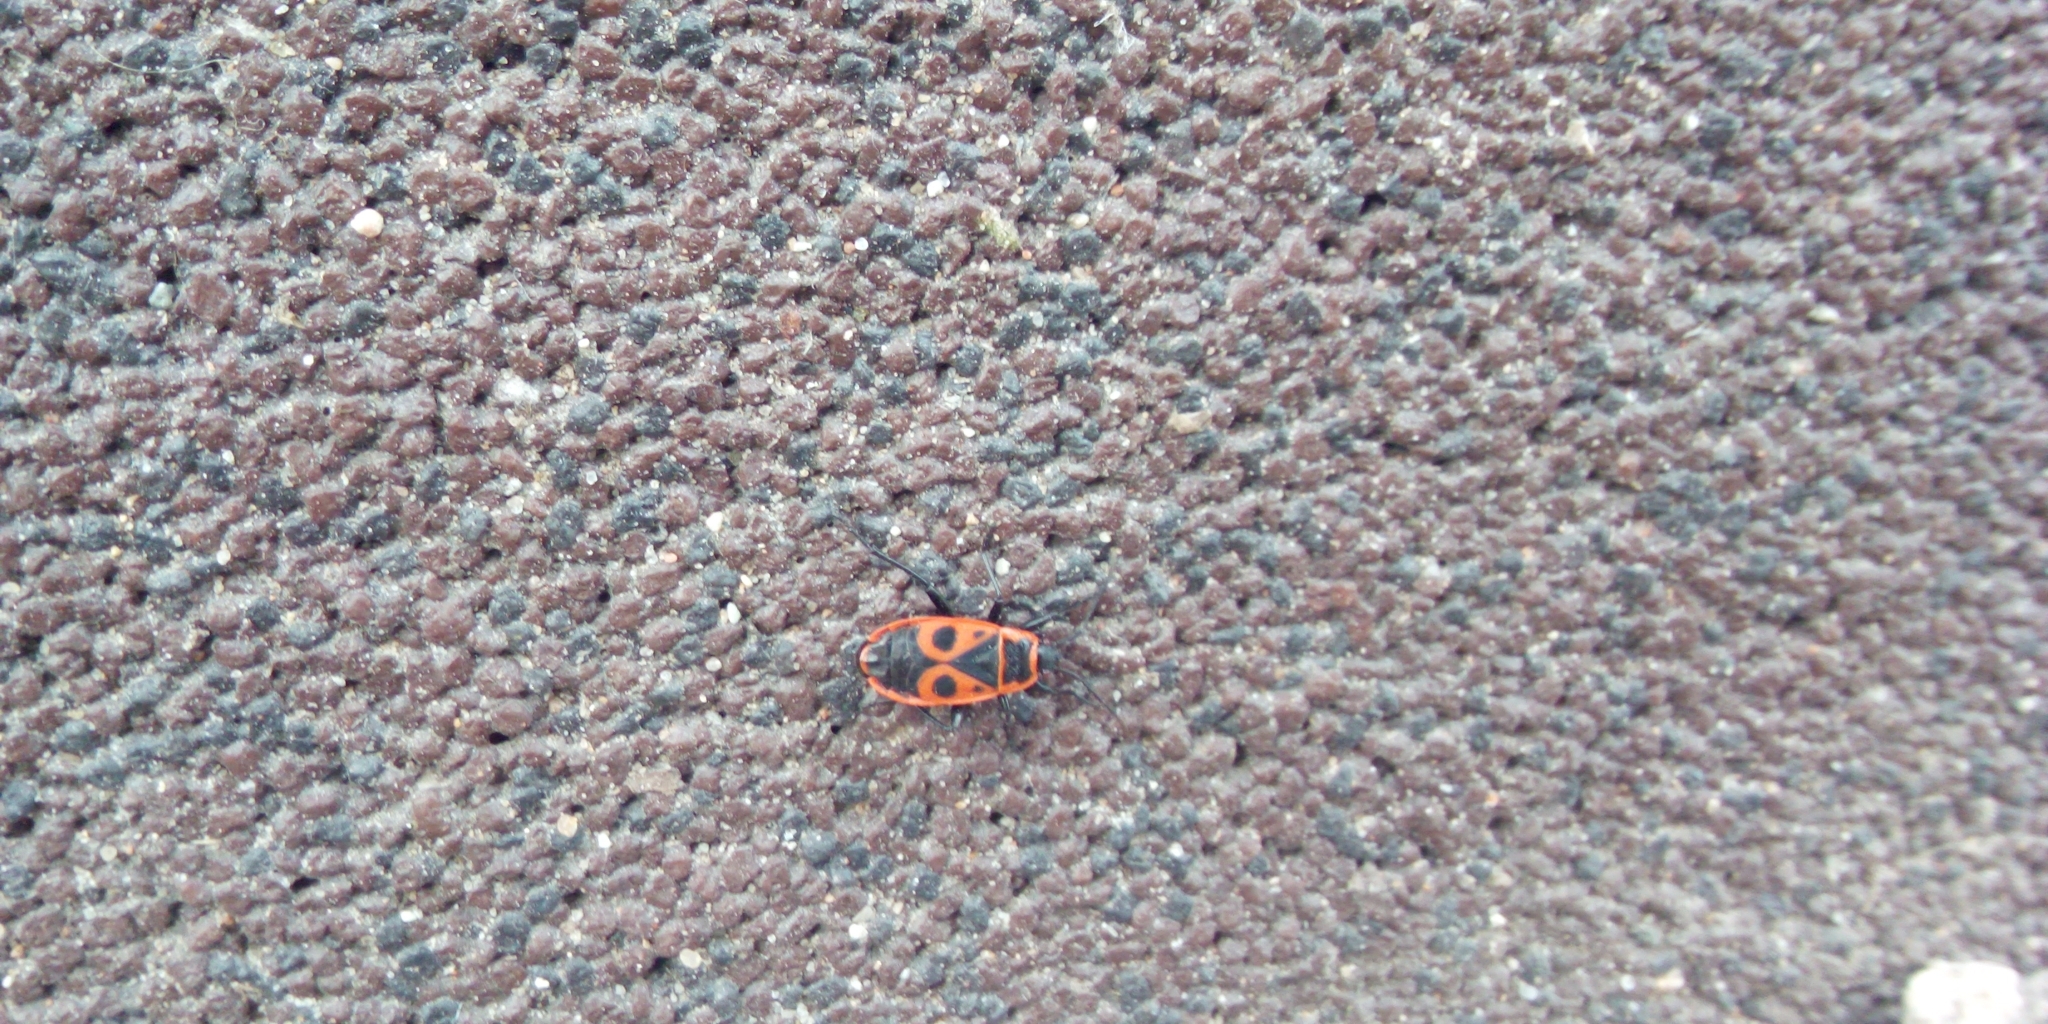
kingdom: Animalia
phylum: Arthropoda
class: Insecta
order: Hemiptera
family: Pyrrhocoridae
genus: Pyrrhocoris
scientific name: Pyrrhocoris apterus
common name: Firebug
